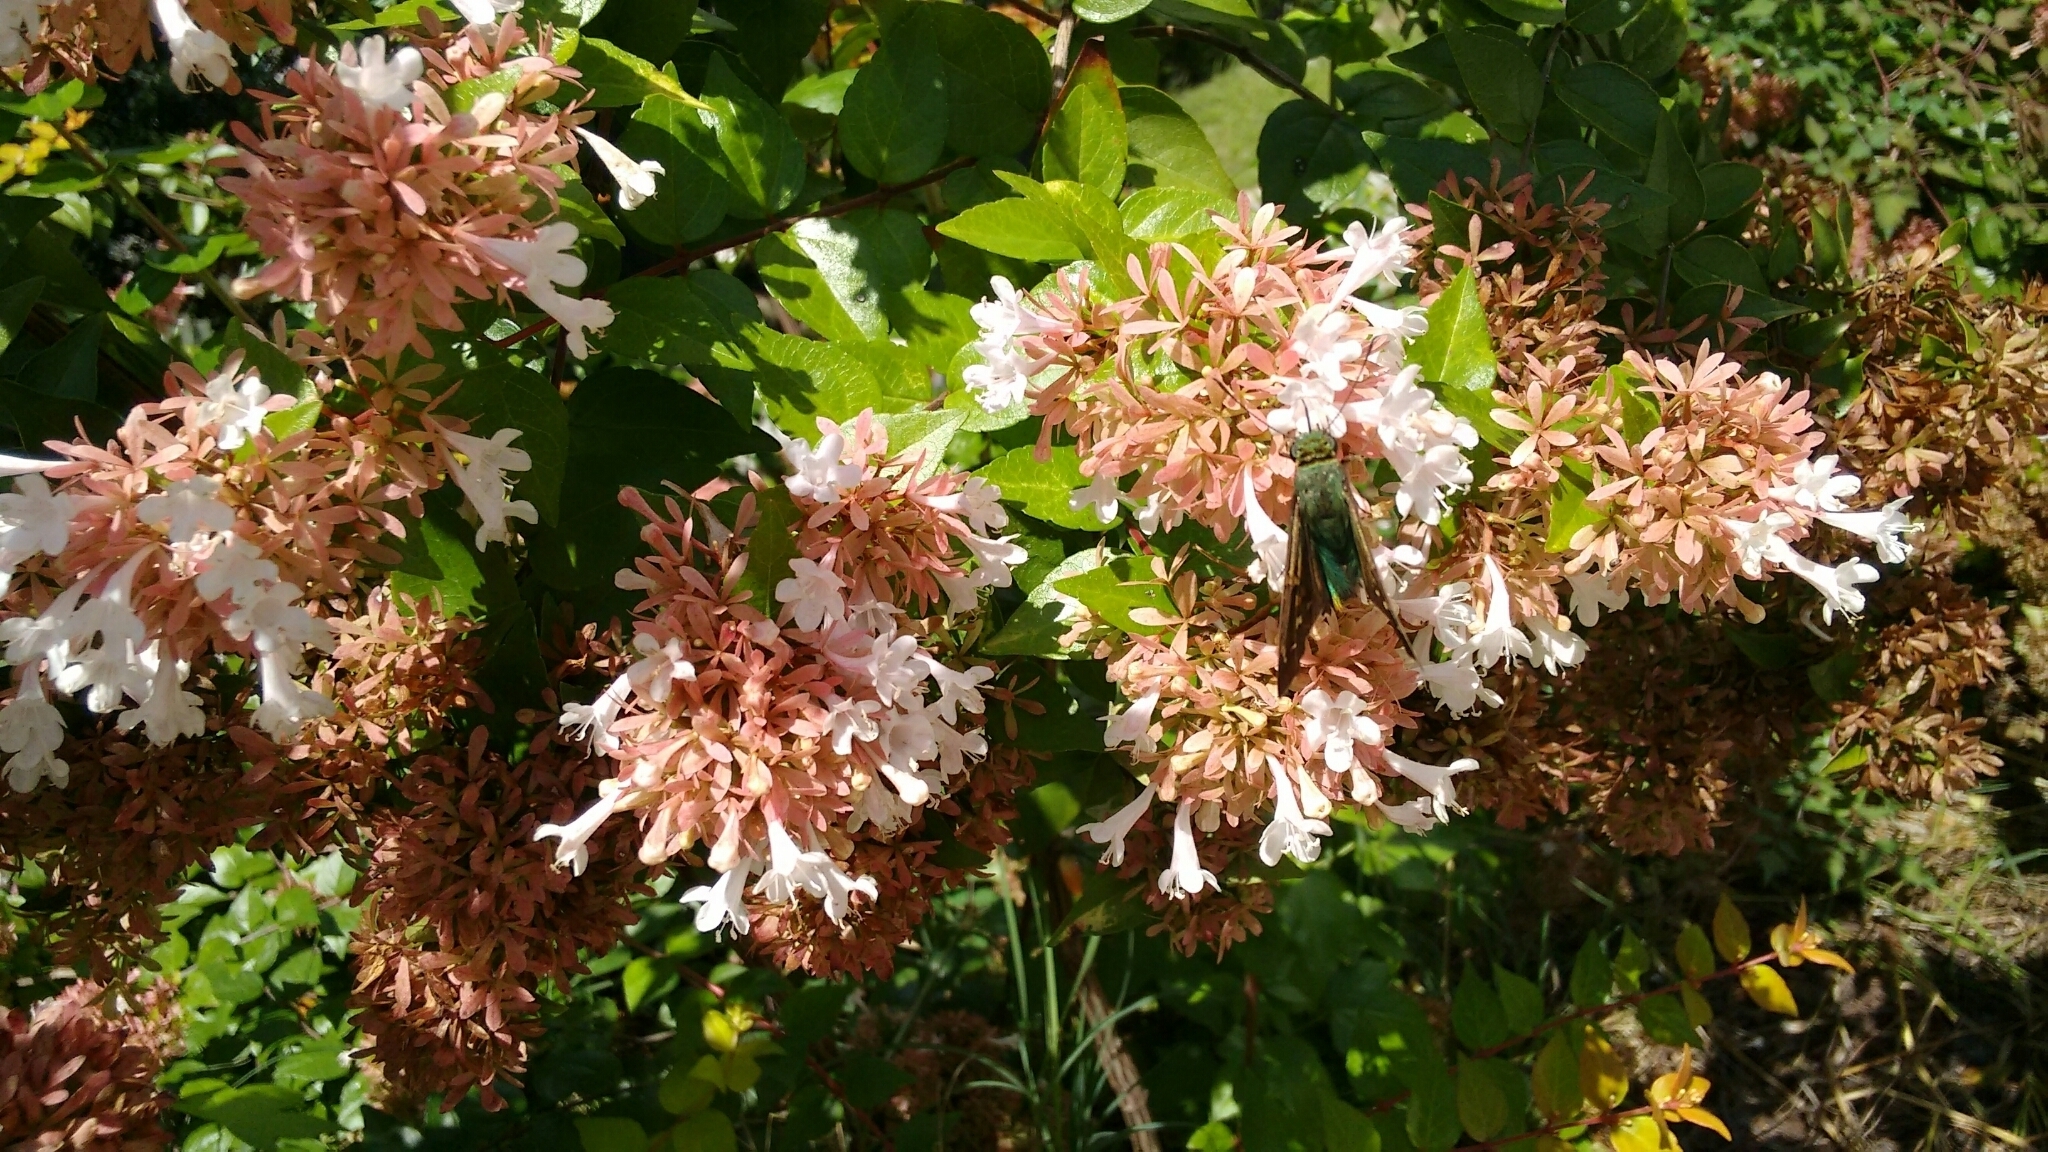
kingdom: Animalia
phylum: Arthropoda
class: Insecta
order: Lepidoptera
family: Hesperiidae
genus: Urbanus
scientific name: Urbanus proteus
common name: Long-tailed skipper
